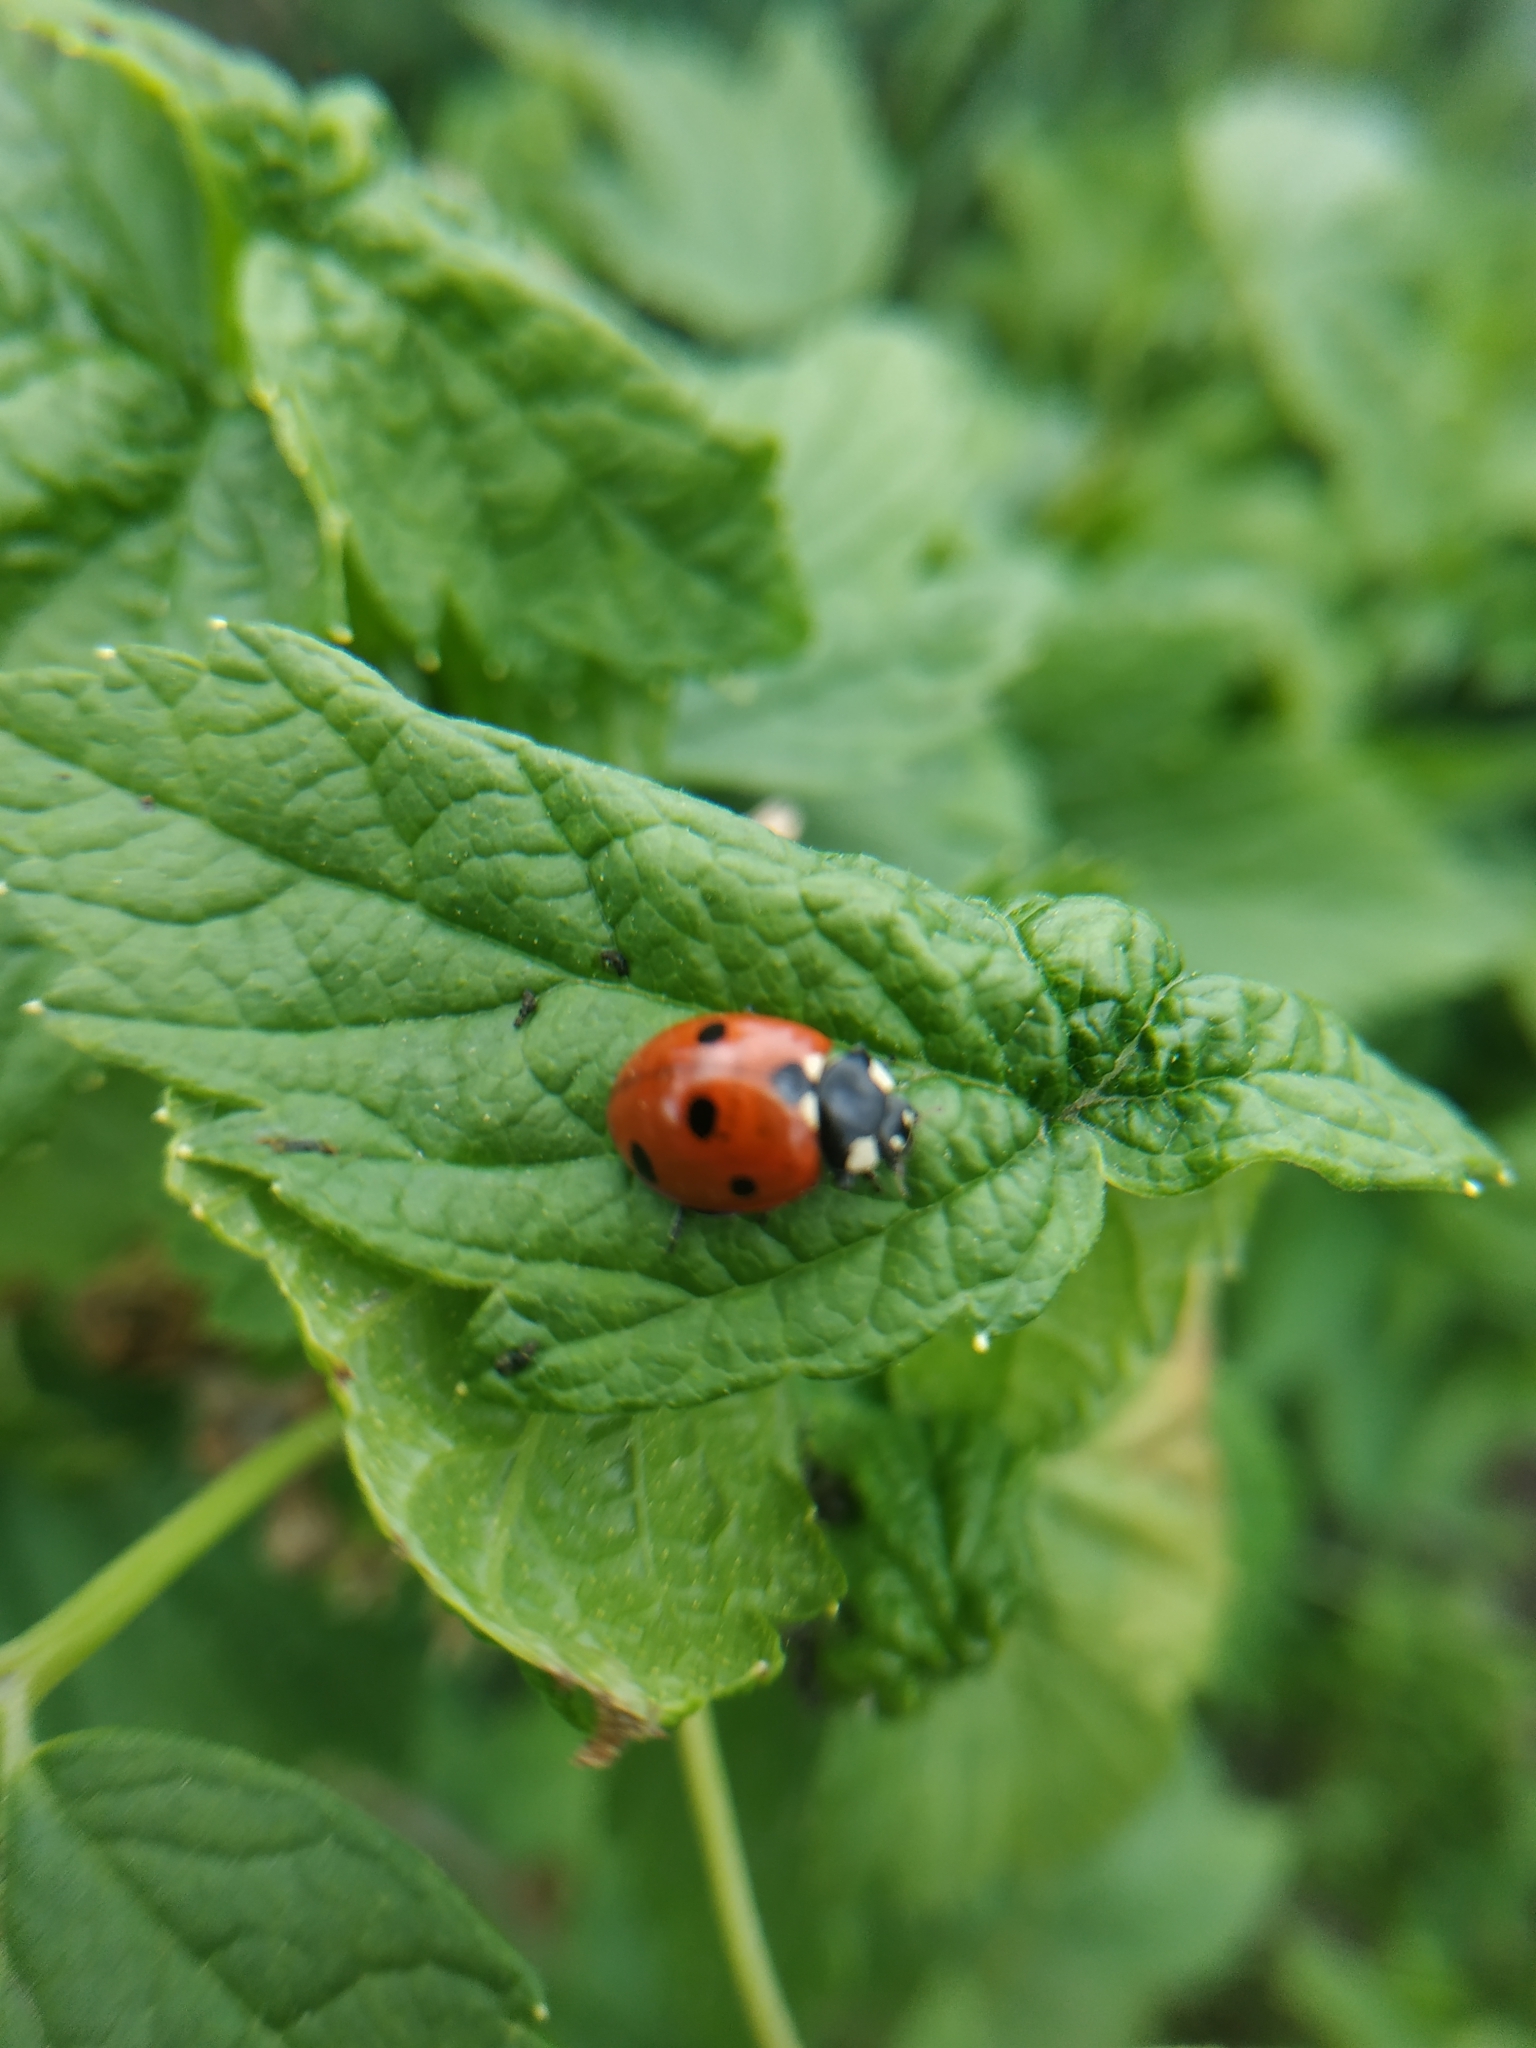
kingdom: Animalia
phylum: Arthropoda
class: Insecta
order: Coleoptera
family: Coccinellidae
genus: Coccinella
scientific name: Coccinella septempunctata
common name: Sevenspotted lady beetle
